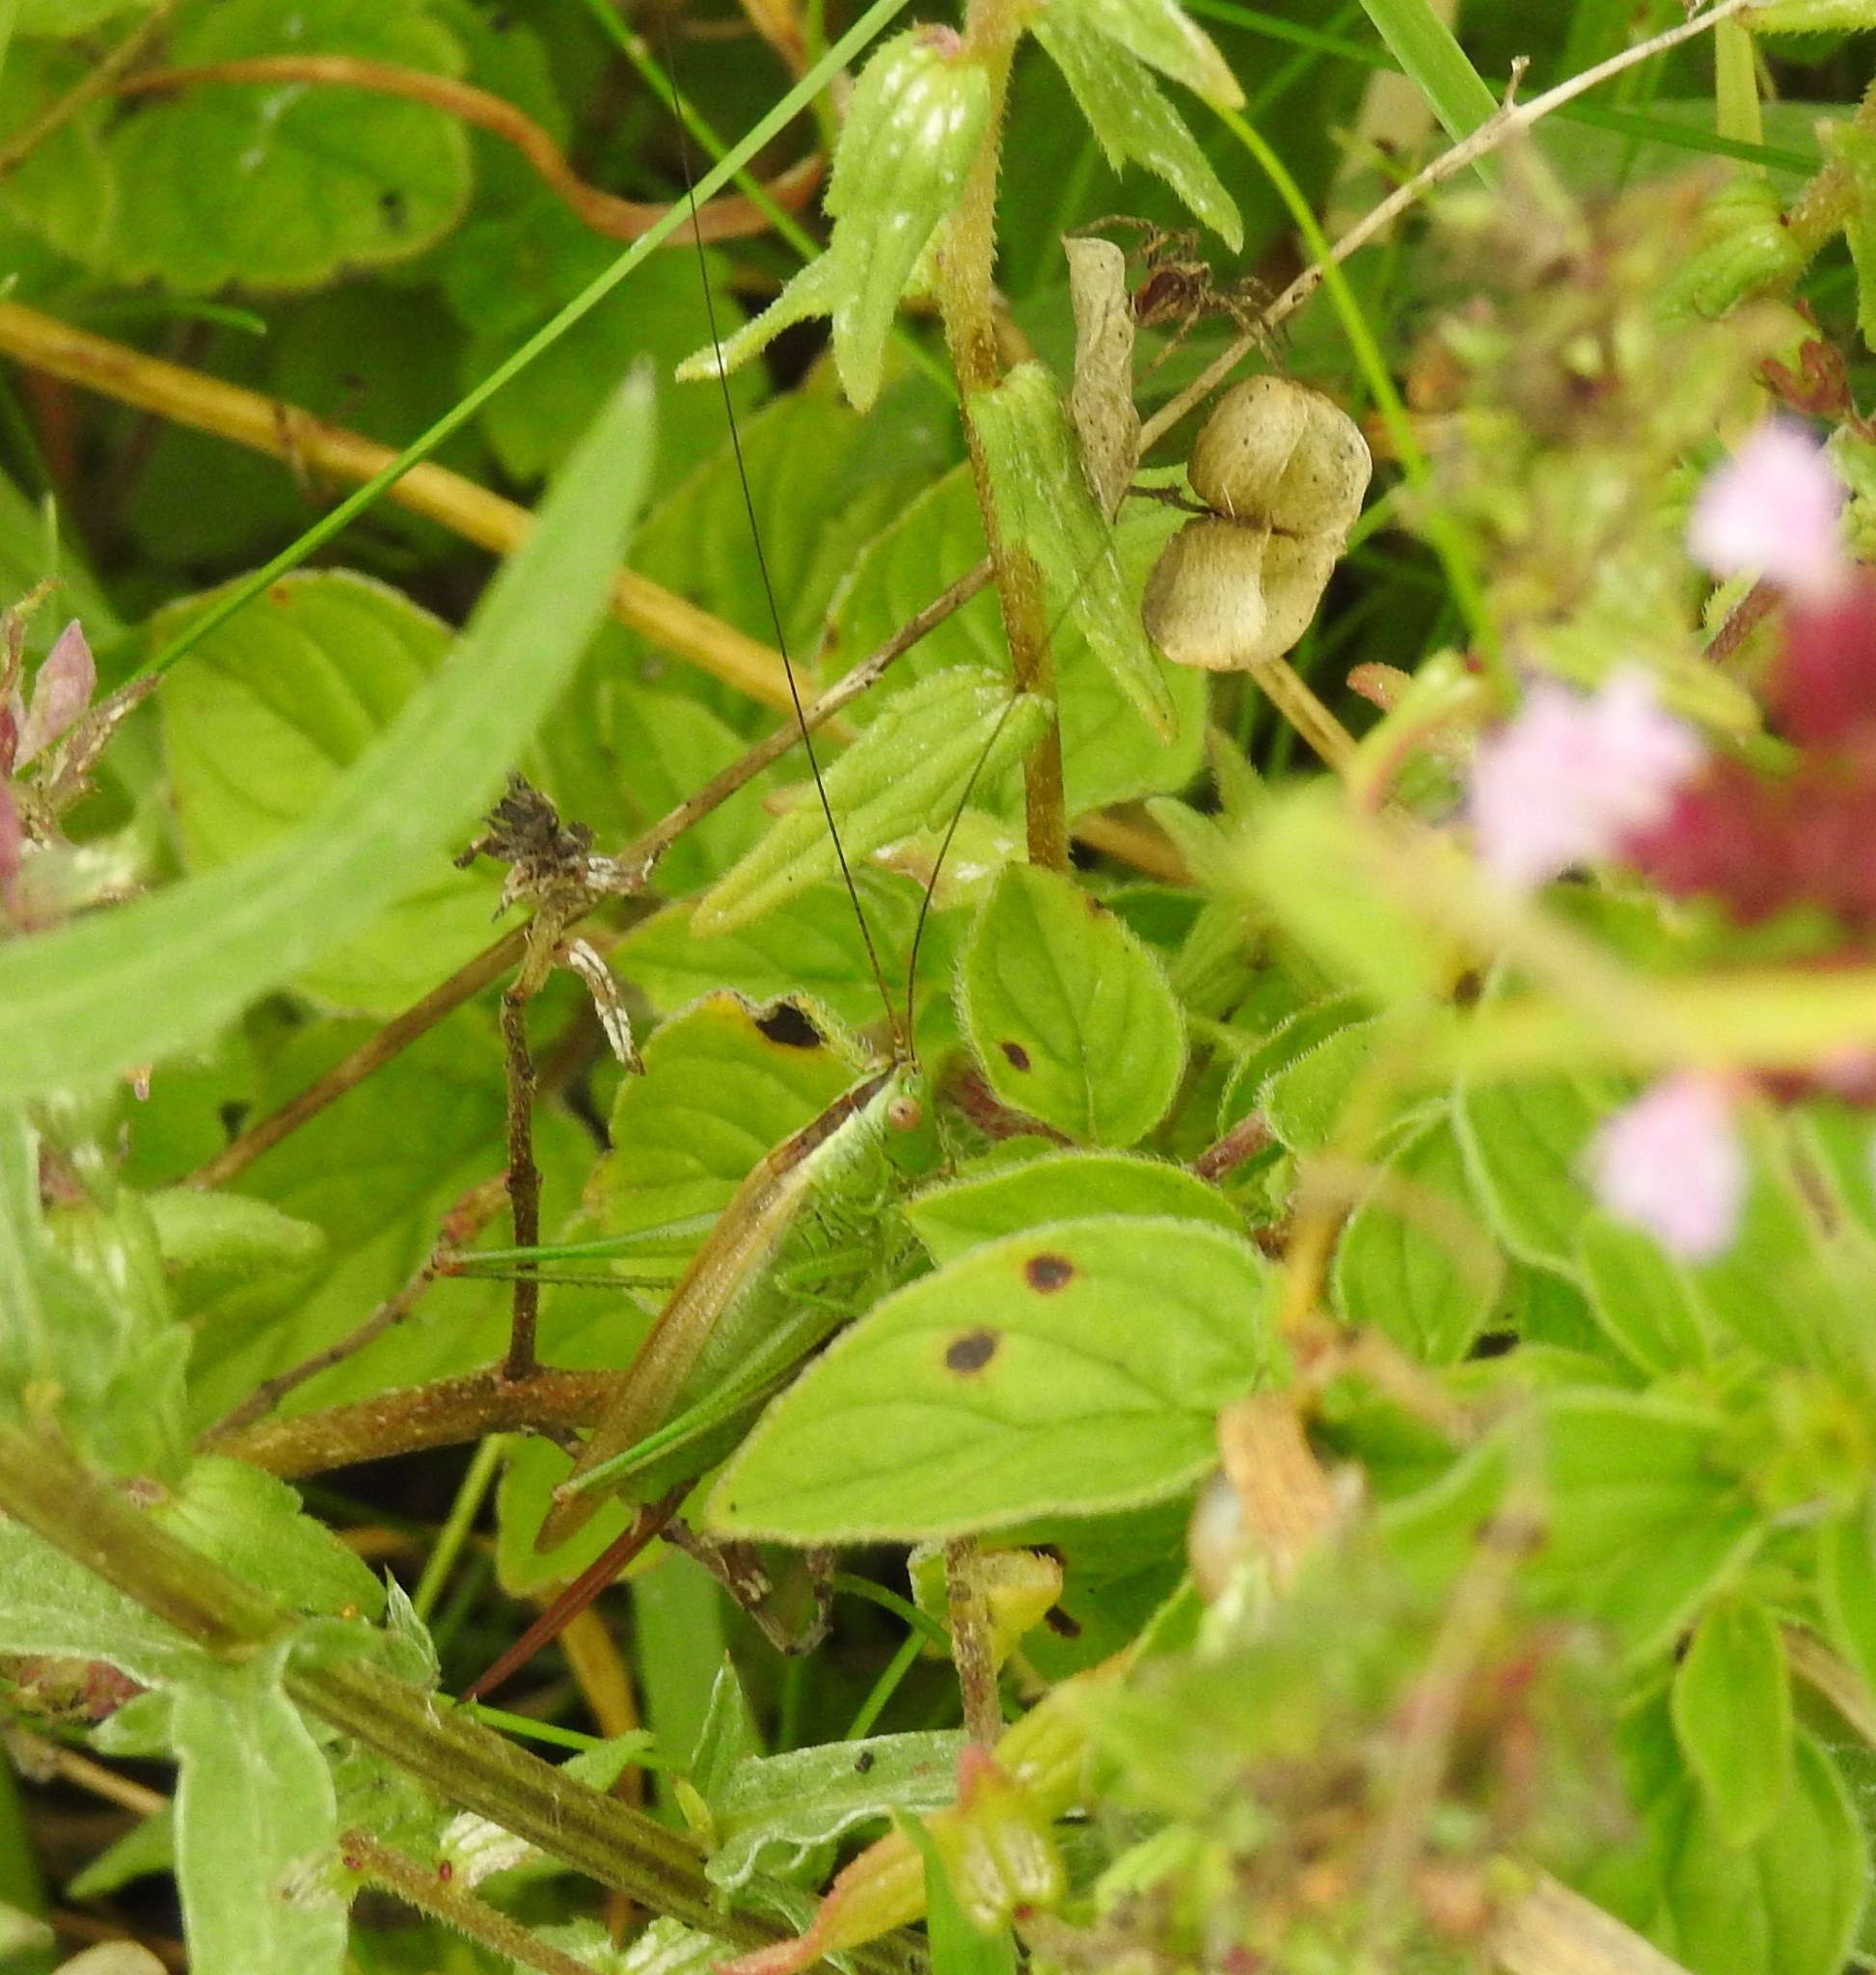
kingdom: Animalia
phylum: Arthropoda
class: Insecta
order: Orthoptera
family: Tettigoniidae
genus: Conocephalus
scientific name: Conocephalus fuscus
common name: Long-winged conehead
